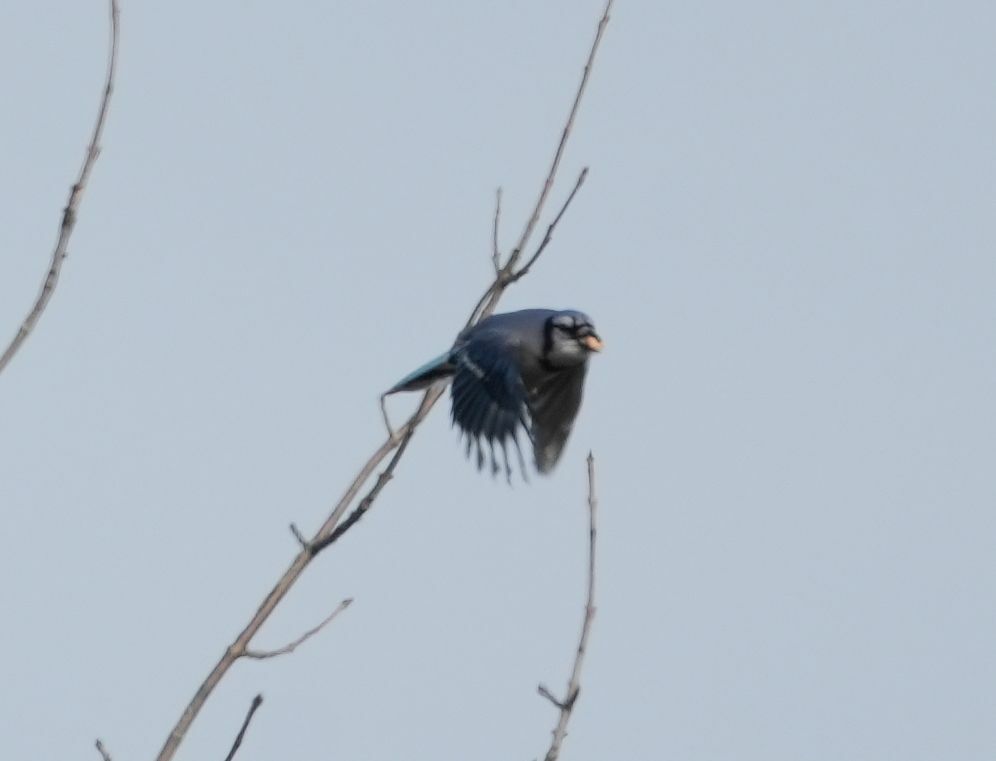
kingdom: Animalia
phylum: Chordata
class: Aves
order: Passeriformes
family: Corvidae
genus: Cyanocitta
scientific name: Cyanocitta cristata
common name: Blue jay
